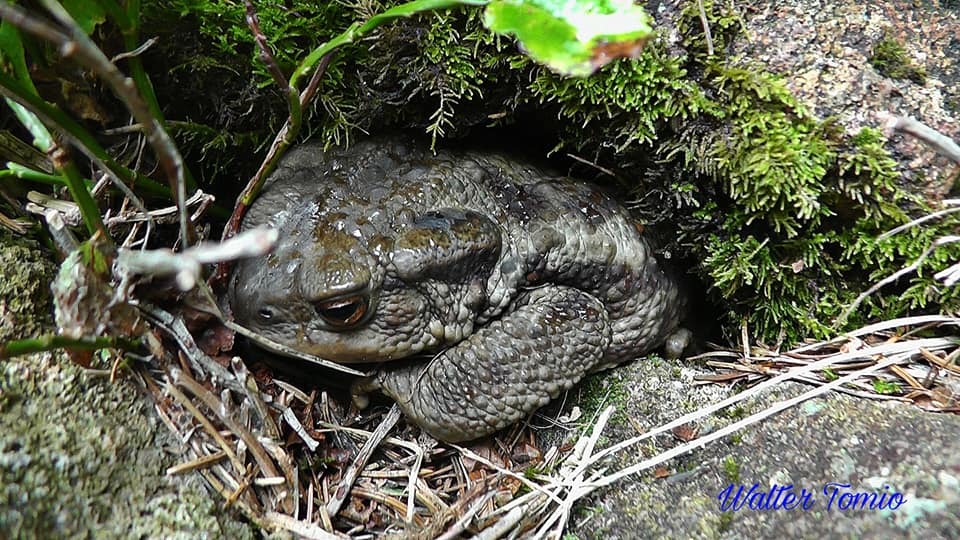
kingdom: Animalia
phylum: Chordata
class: Amphibia
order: Anura
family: Bufonidae
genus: Bufo
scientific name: Bufo bufo
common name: Common toad
